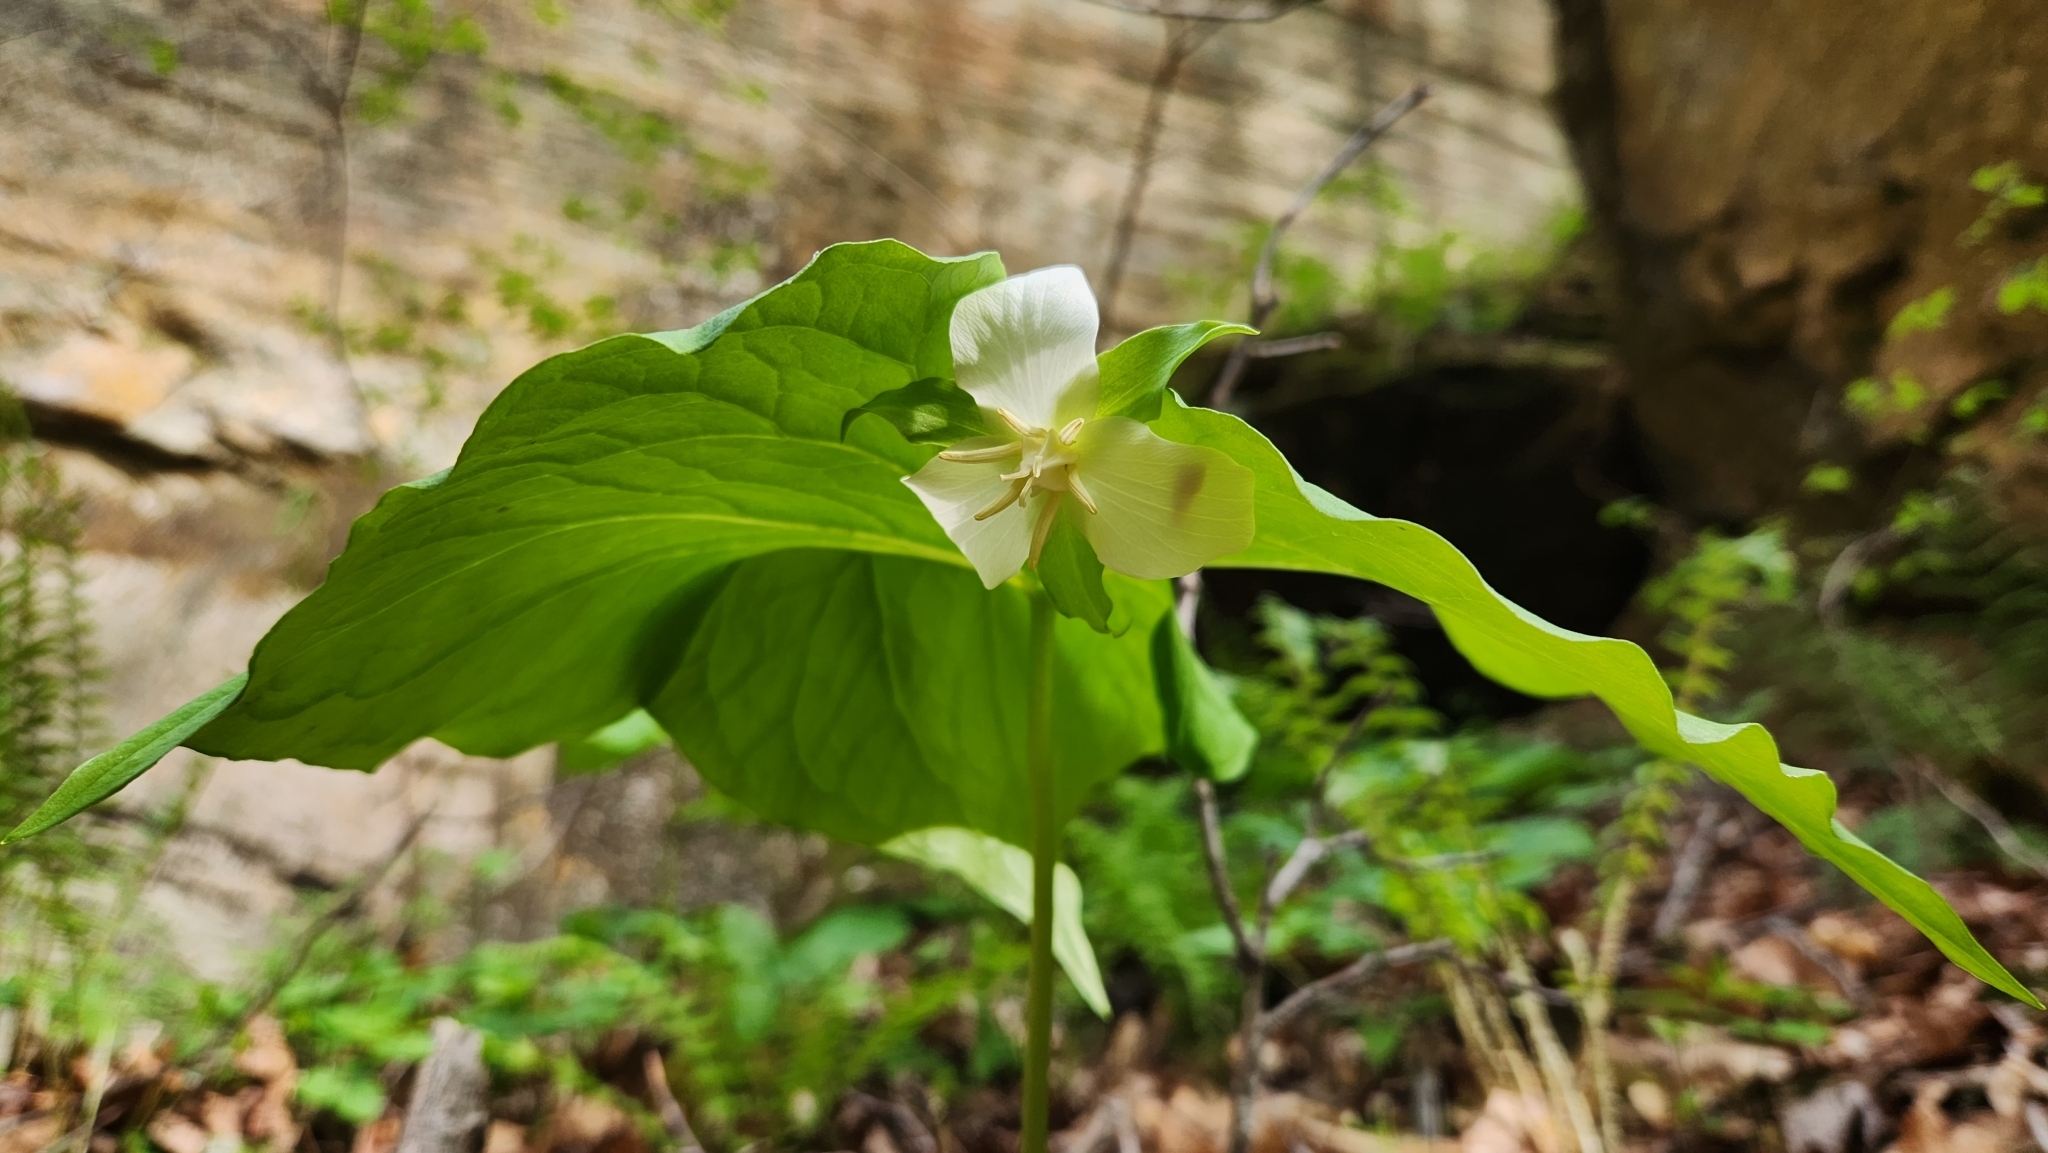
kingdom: Plantae
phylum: Tracheophyta
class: Liliopsida
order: Liliales
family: Melanthiaceae
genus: Trillium
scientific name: Trillium flexipes
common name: Drooping trillium
